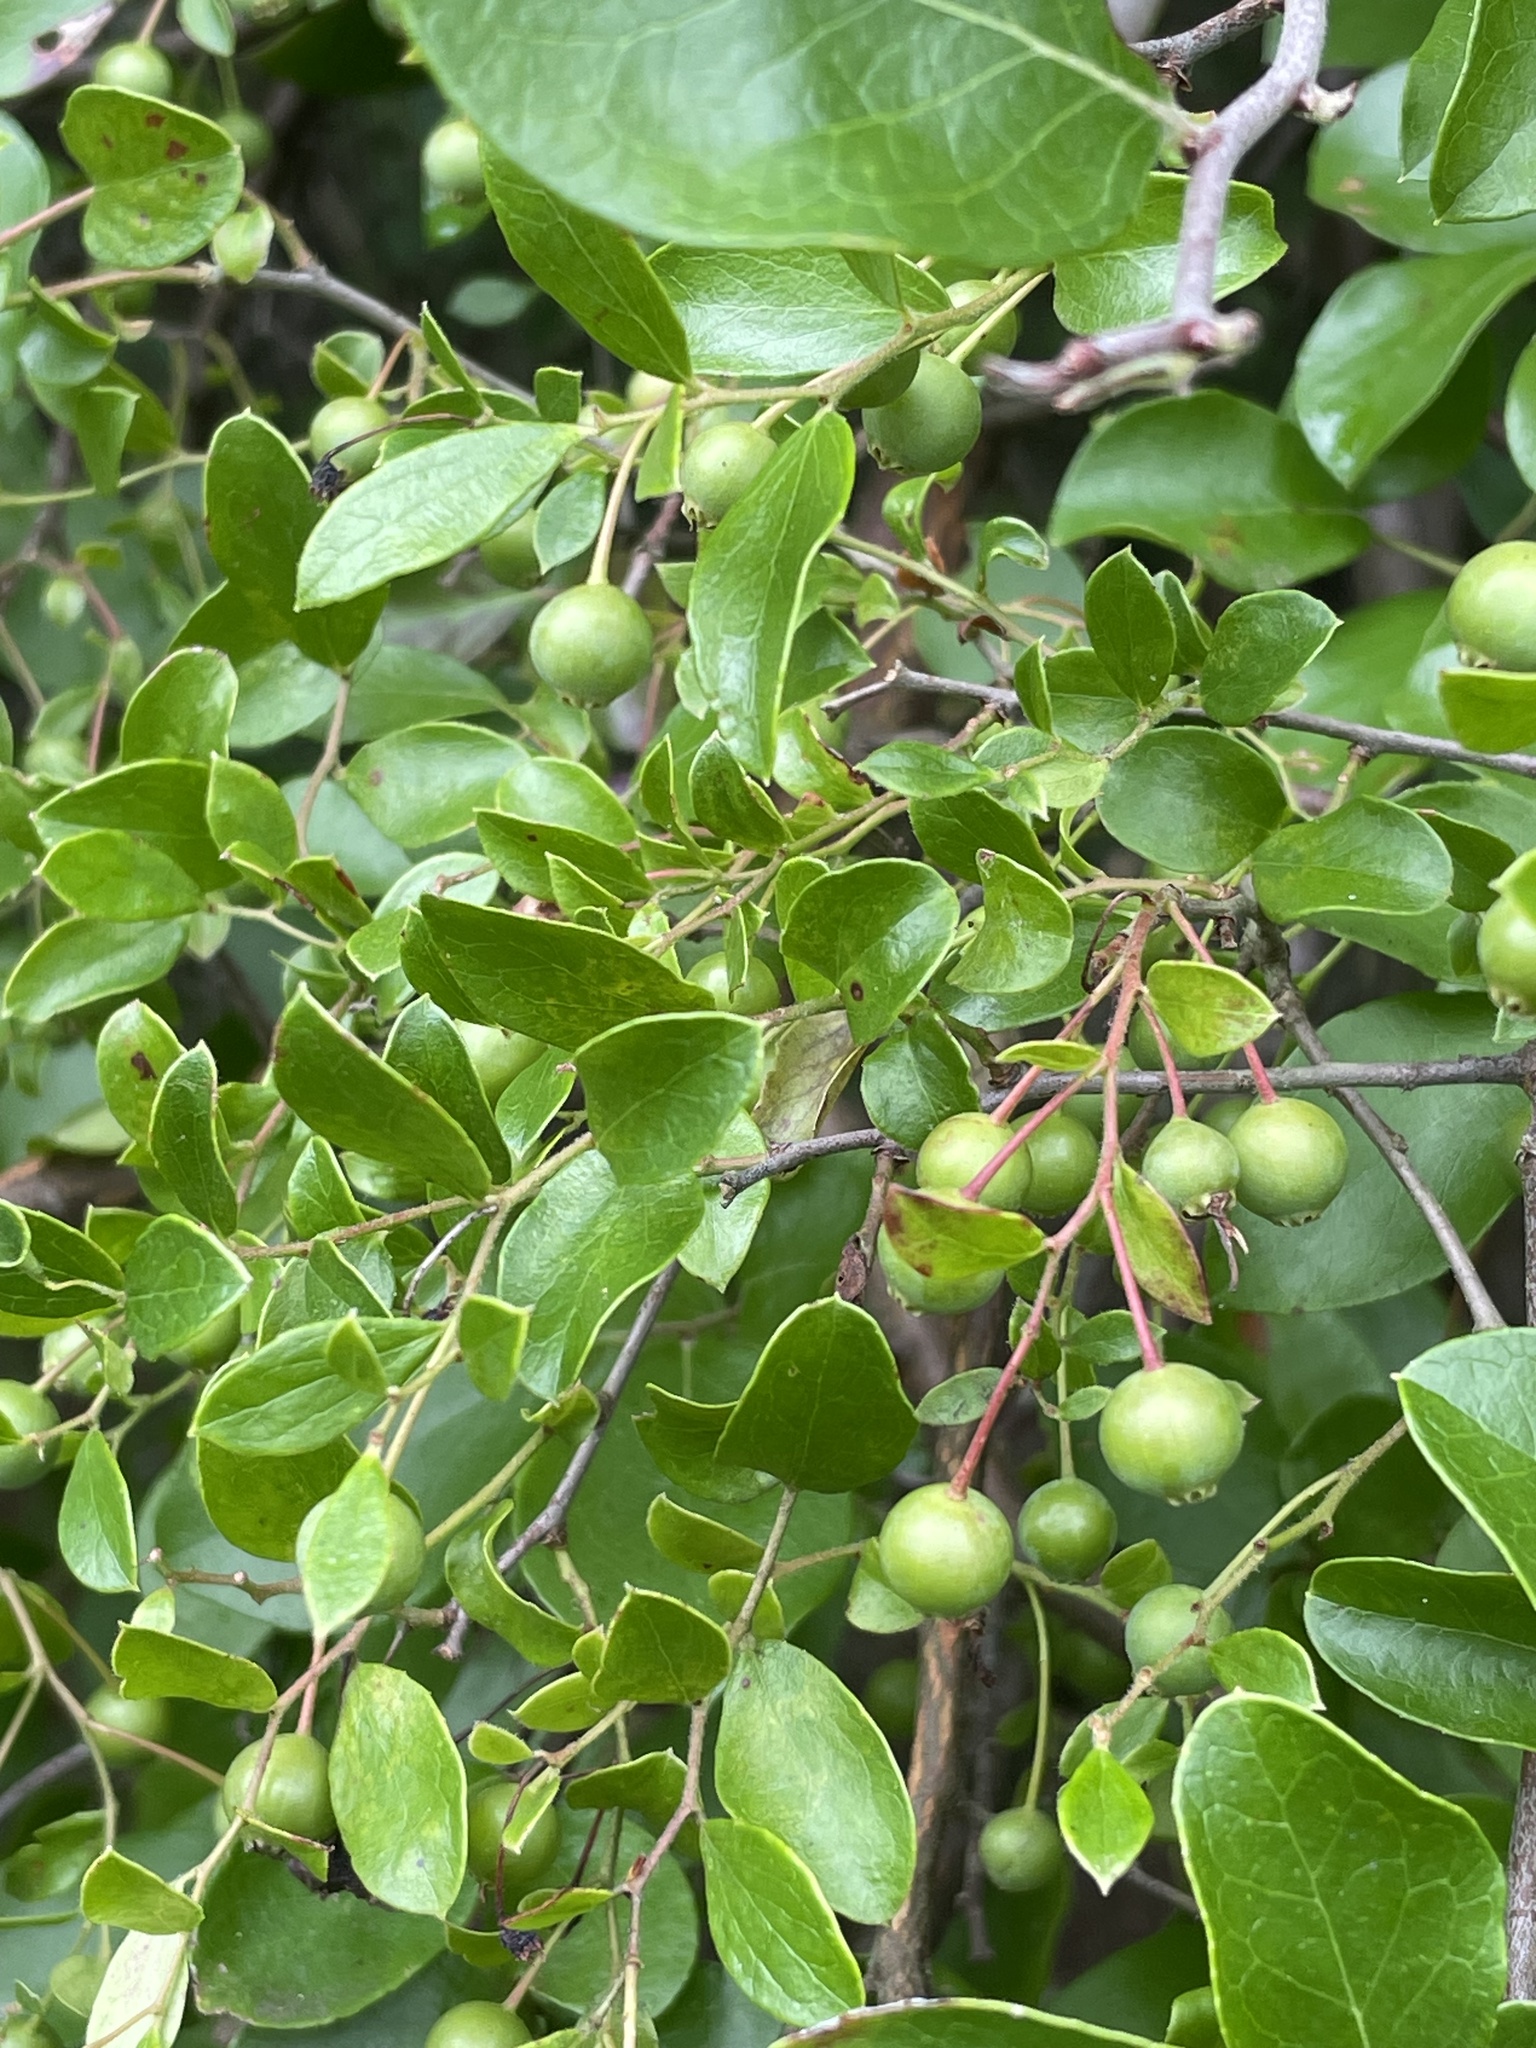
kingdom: Plantae
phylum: Tracheophyta
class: Magnoliopsida
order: Ericales
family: Ericaceae
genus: Vaccinium
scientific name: Vaccinium arboreum
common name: Farkleberry
